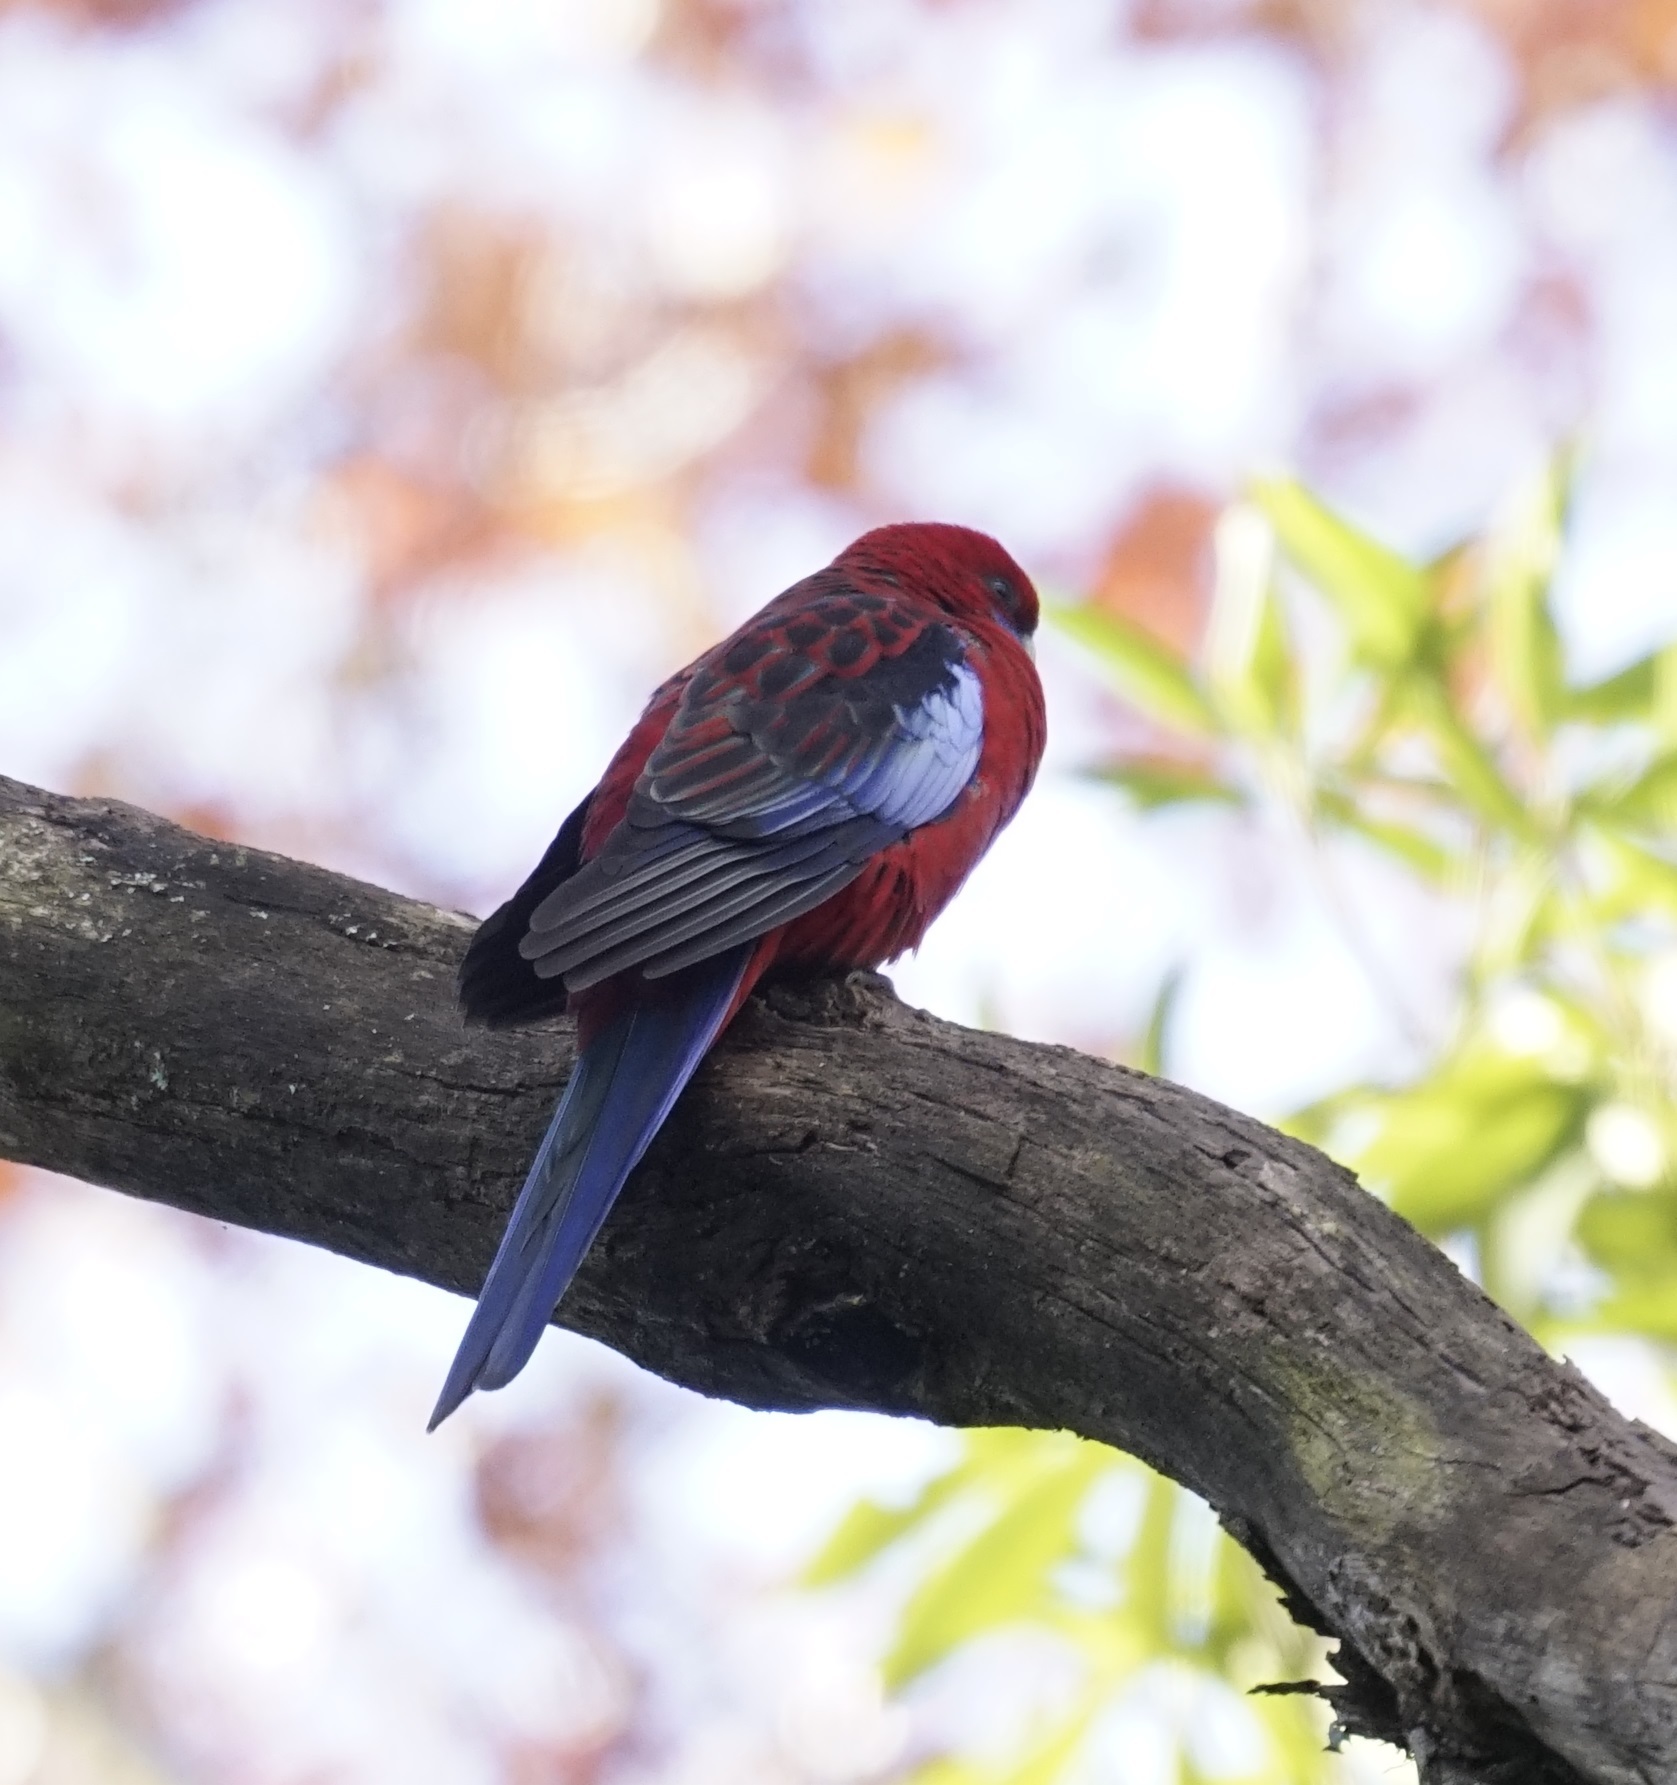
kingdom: Animalia
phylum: Chordata
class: Aves
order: Psittaciformes
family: Psittacidae
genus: Platycercus
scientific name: Platycercus elegans
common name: Crimson rosella
